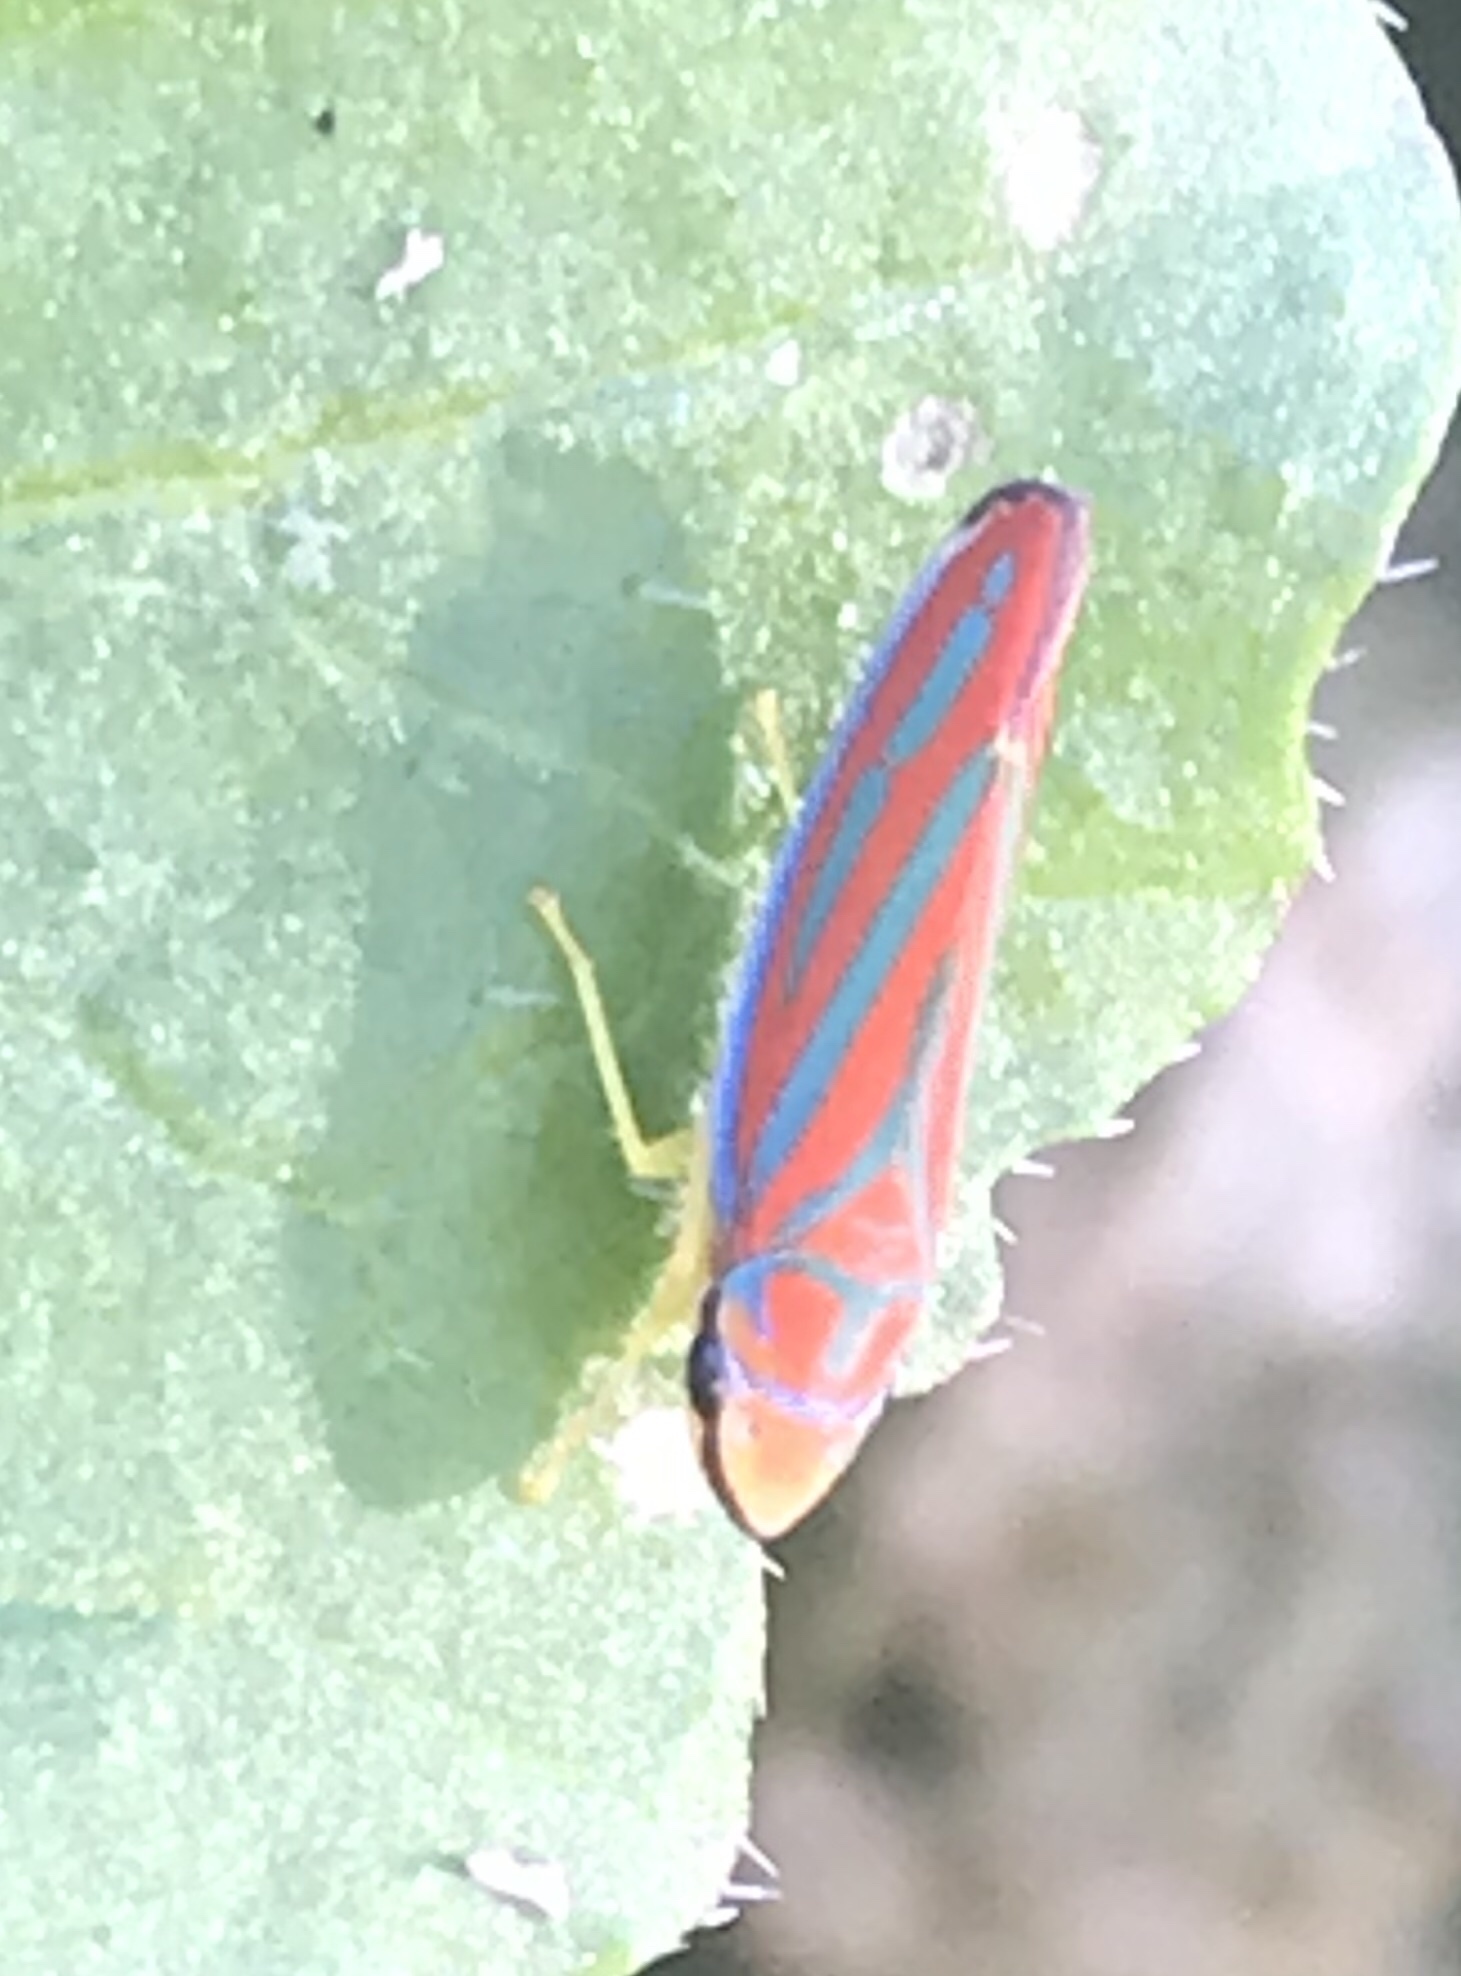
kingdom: Animalia
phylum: Arthropoda
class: Insecta
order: Hemiptera
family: Cicadellidae
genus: Graphocephala
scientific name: Graphocephala coccinea
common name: Candy-striped leafhopper
